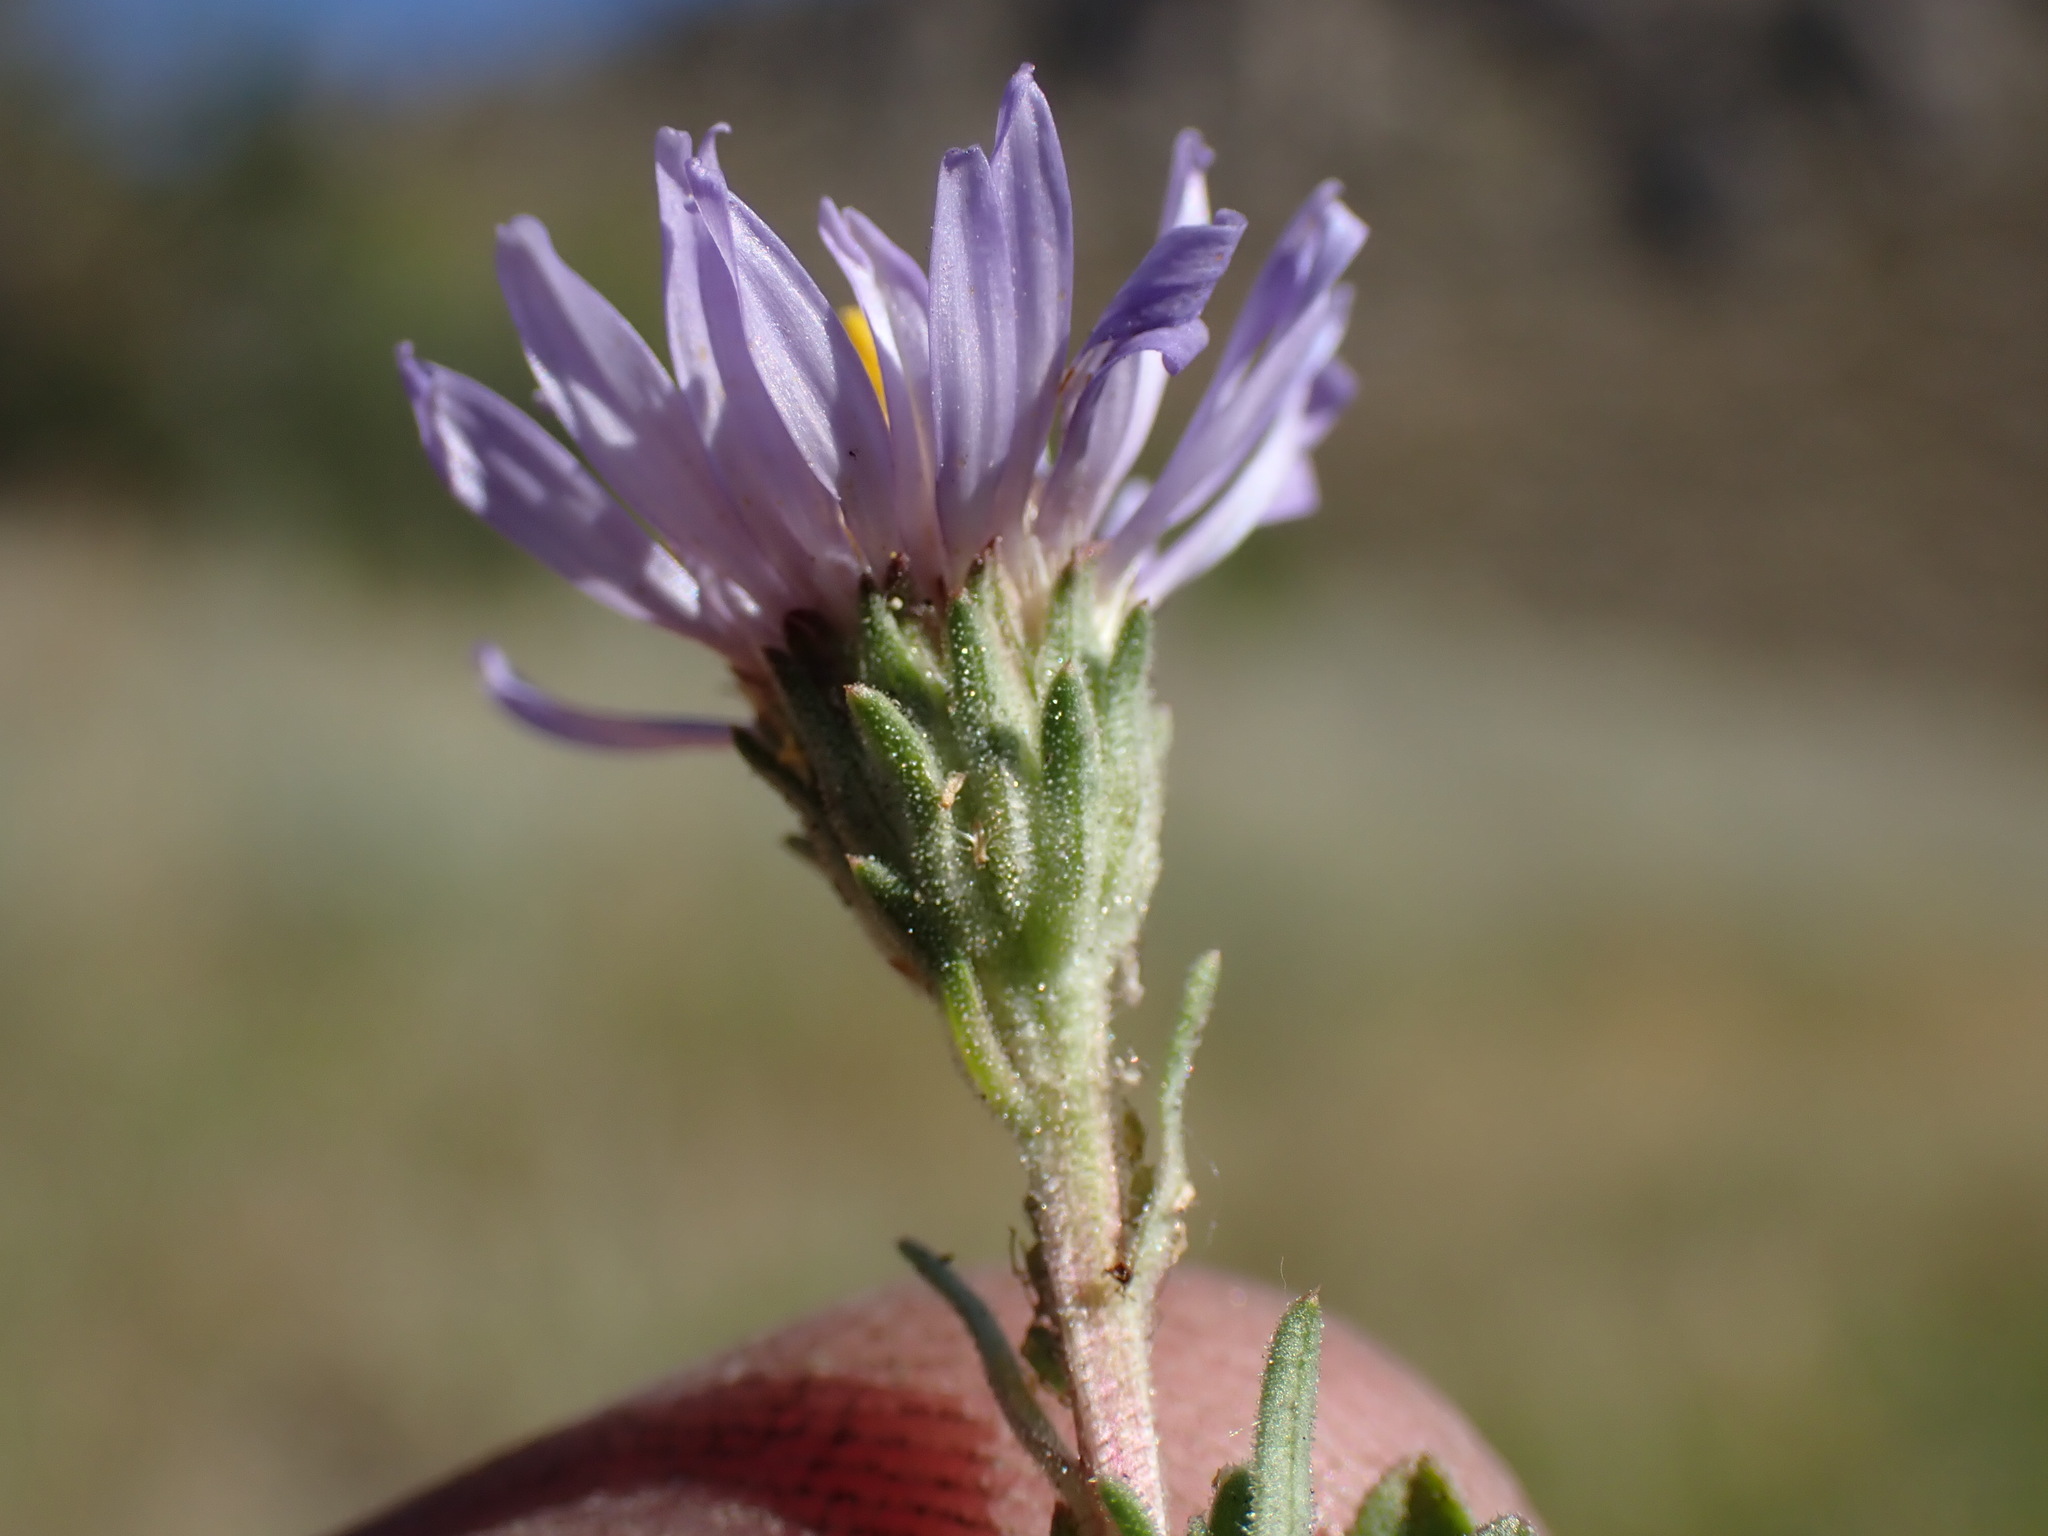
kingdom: Plantae
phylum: Tracheophyta
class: Magnoliopsida
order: Asterales
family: Asteraceae
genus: Symphyotrichum
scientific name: Symphyotrichum campestre
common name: Meadow aster
